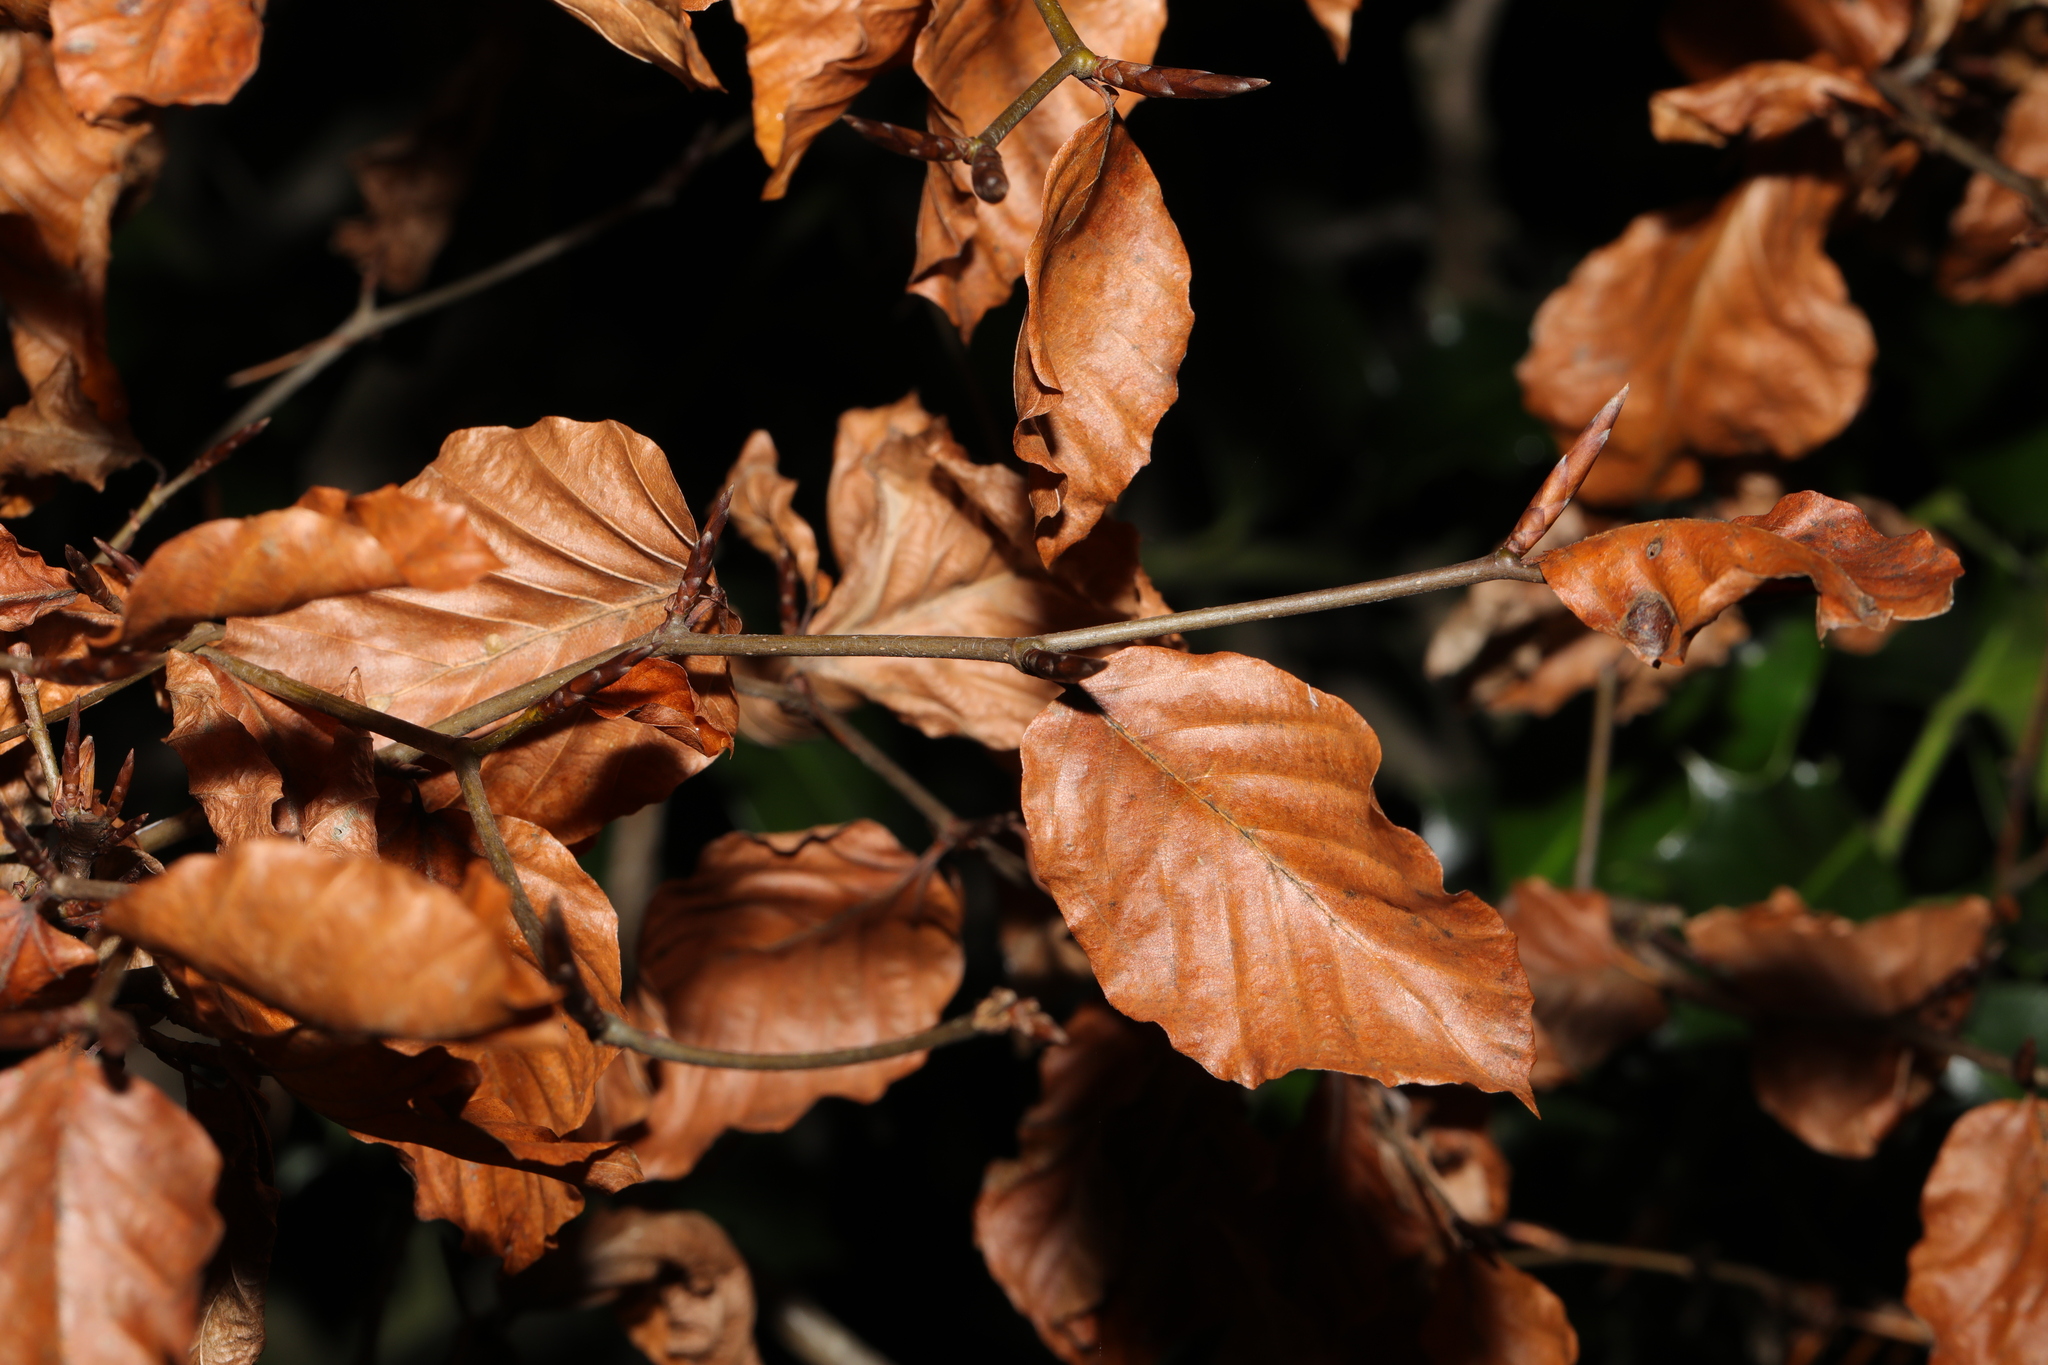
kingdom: Plantae
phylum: Tracheophyta
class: Magnoliopsida
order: Fagales
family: Fagaceae
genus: Fagus
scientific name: Fagus sylvatica
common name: Beech
